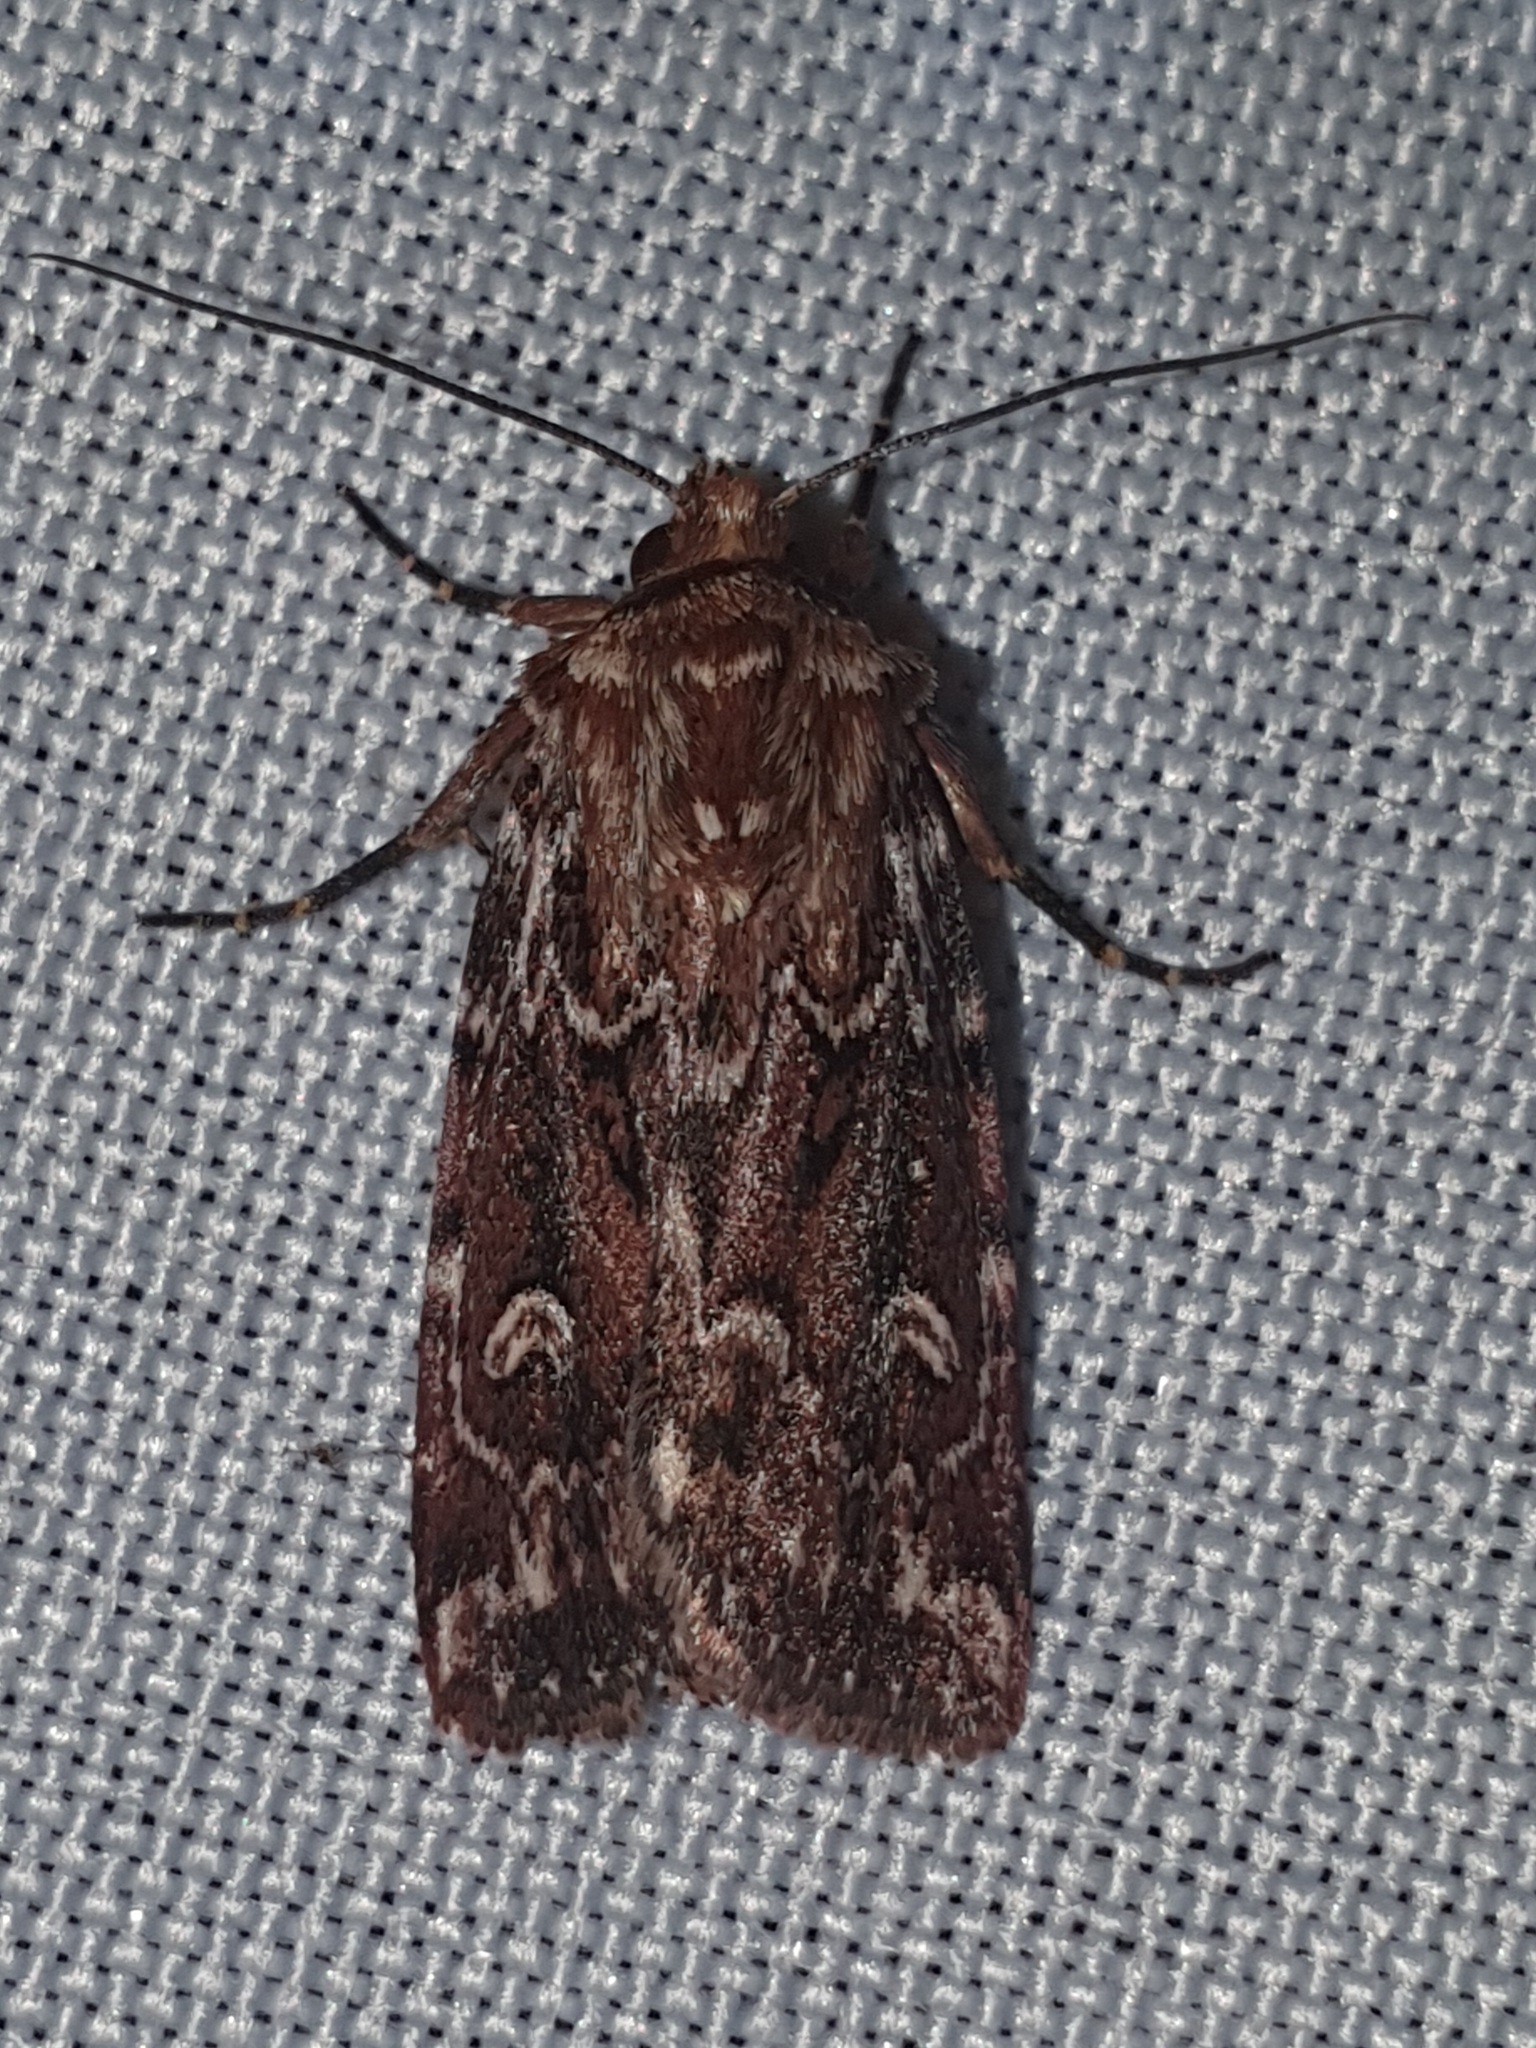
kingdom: Animalia
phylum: Arthropoda
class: Insecta
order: Lepidoptera
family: Noctuidae
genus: Lycophotia
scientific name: Lycophotia porphyrea
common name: True lover's knot
